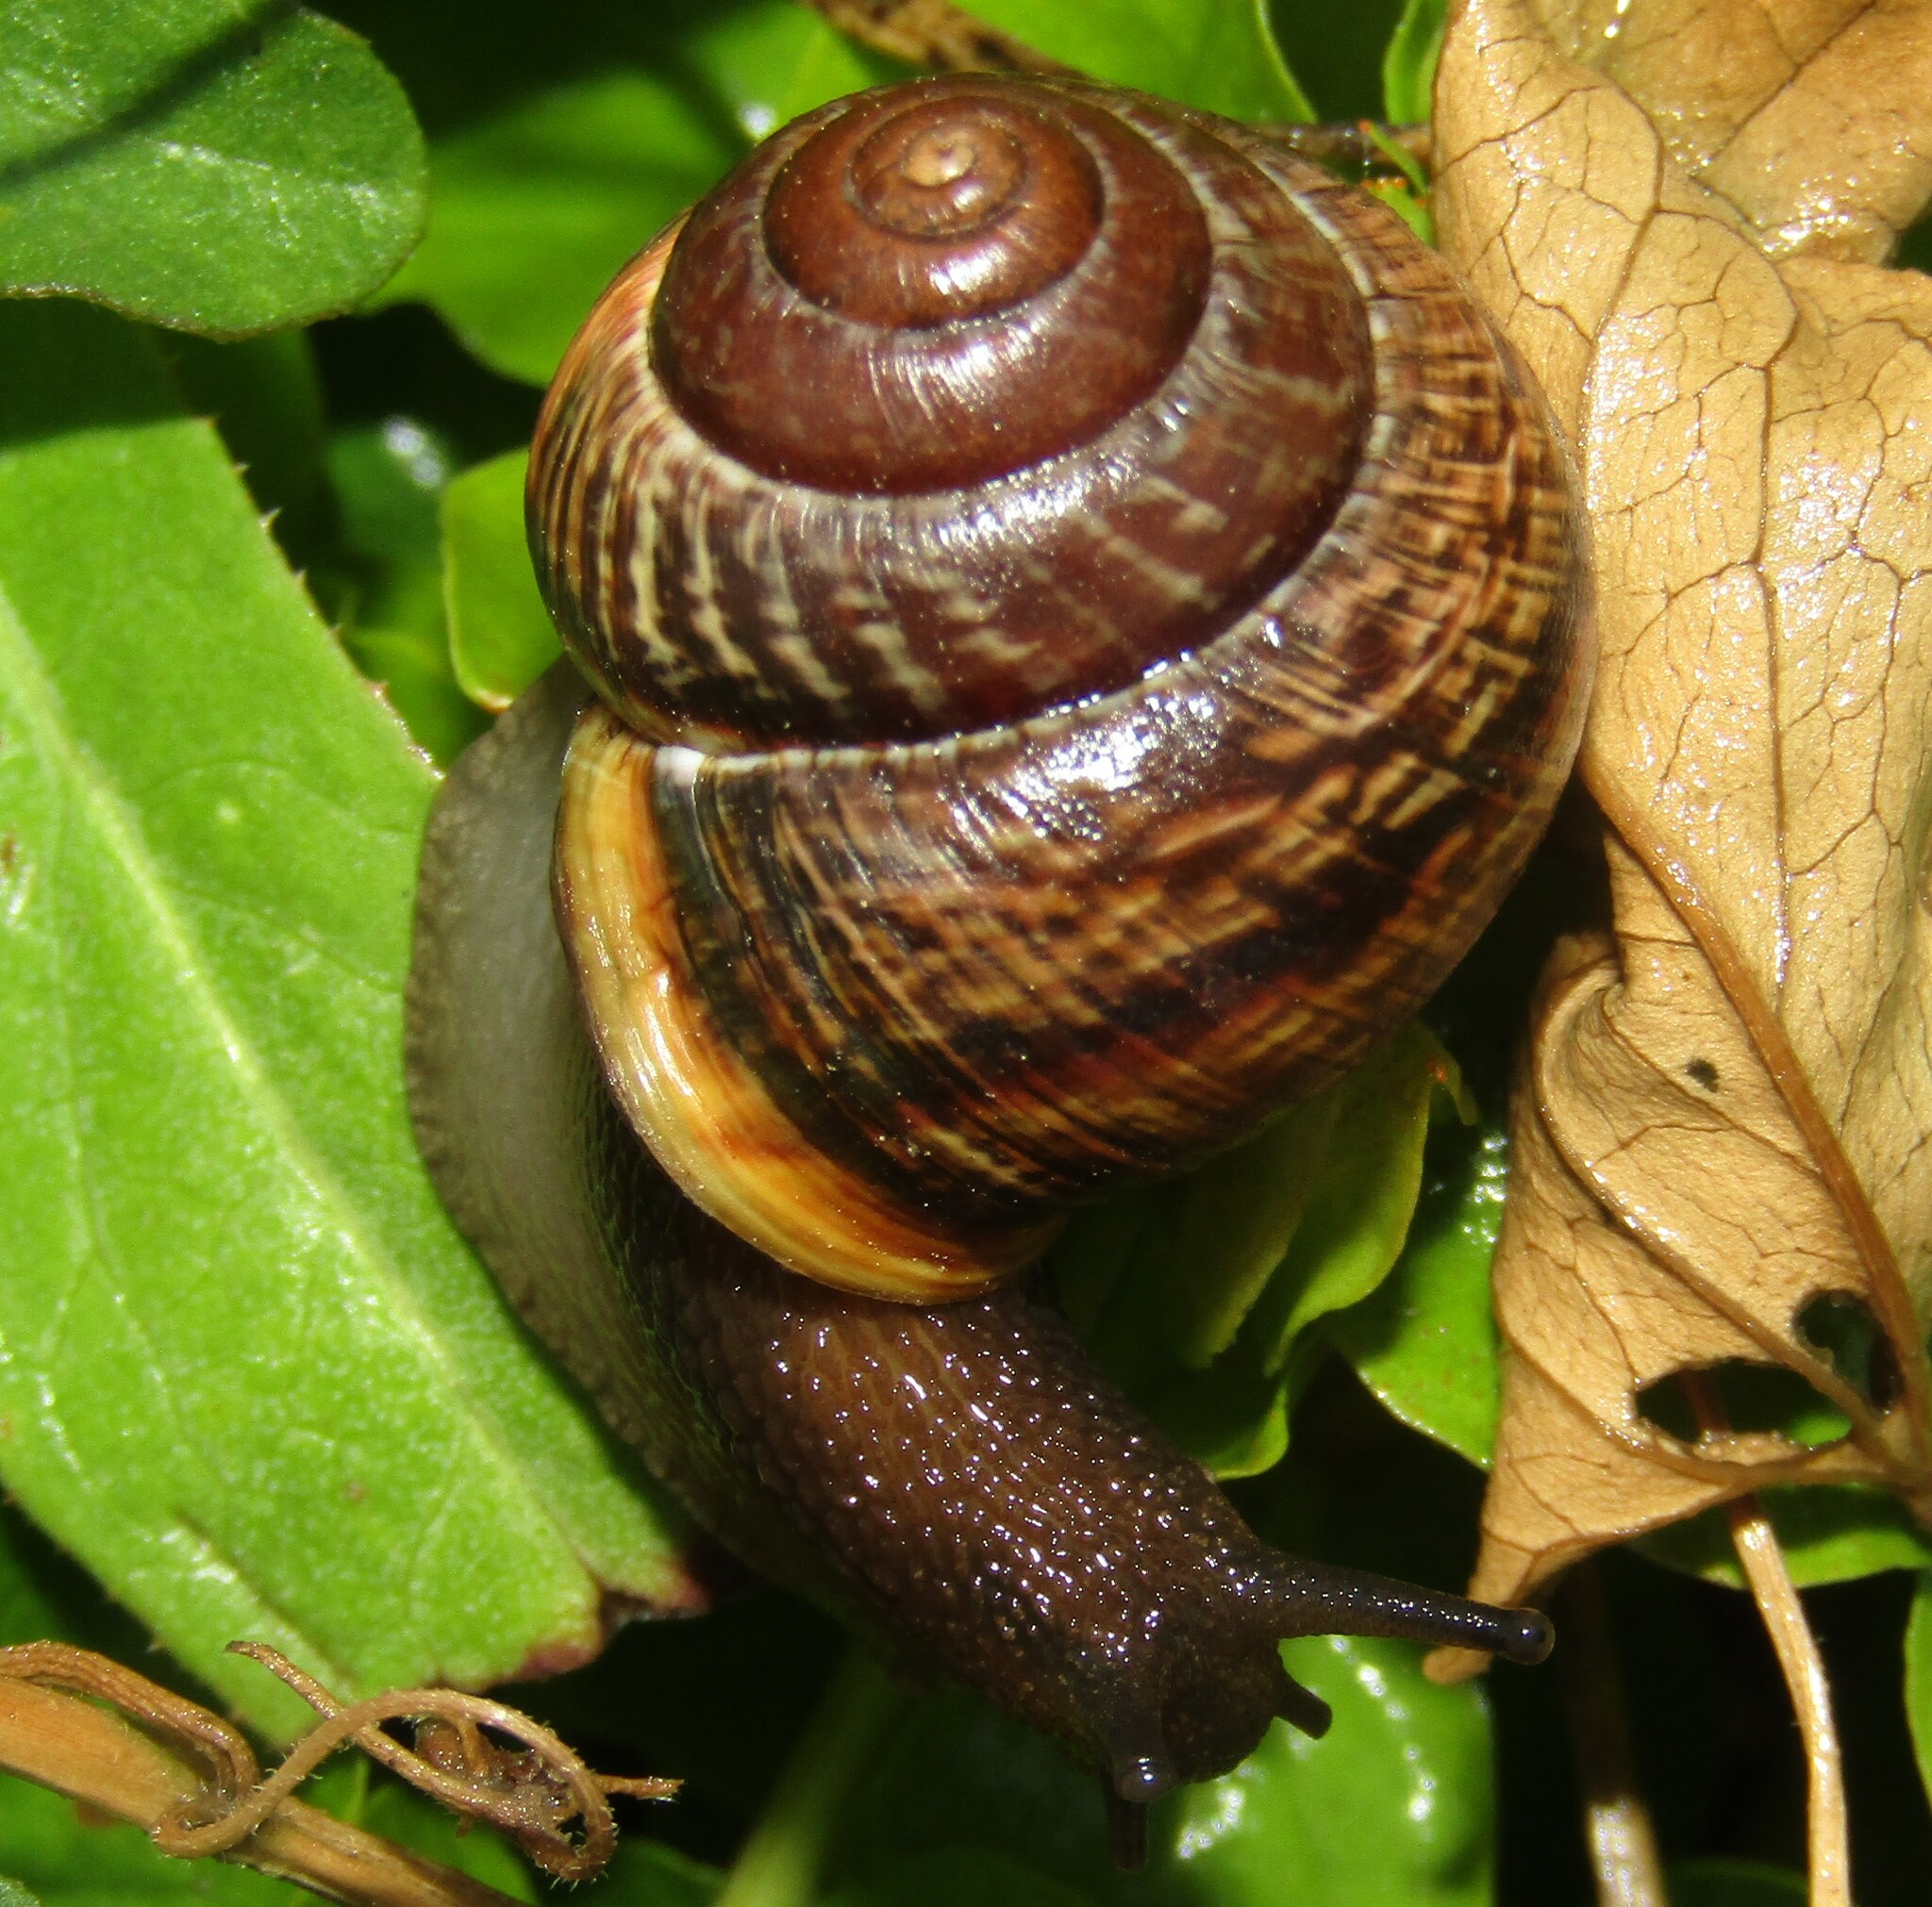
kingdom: Animalia
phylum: Mollusca
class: Gastropoda
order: Stylommatophora
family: Helicidae
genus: Arianta
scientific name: Arianta arbustorum
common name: Copse snail
